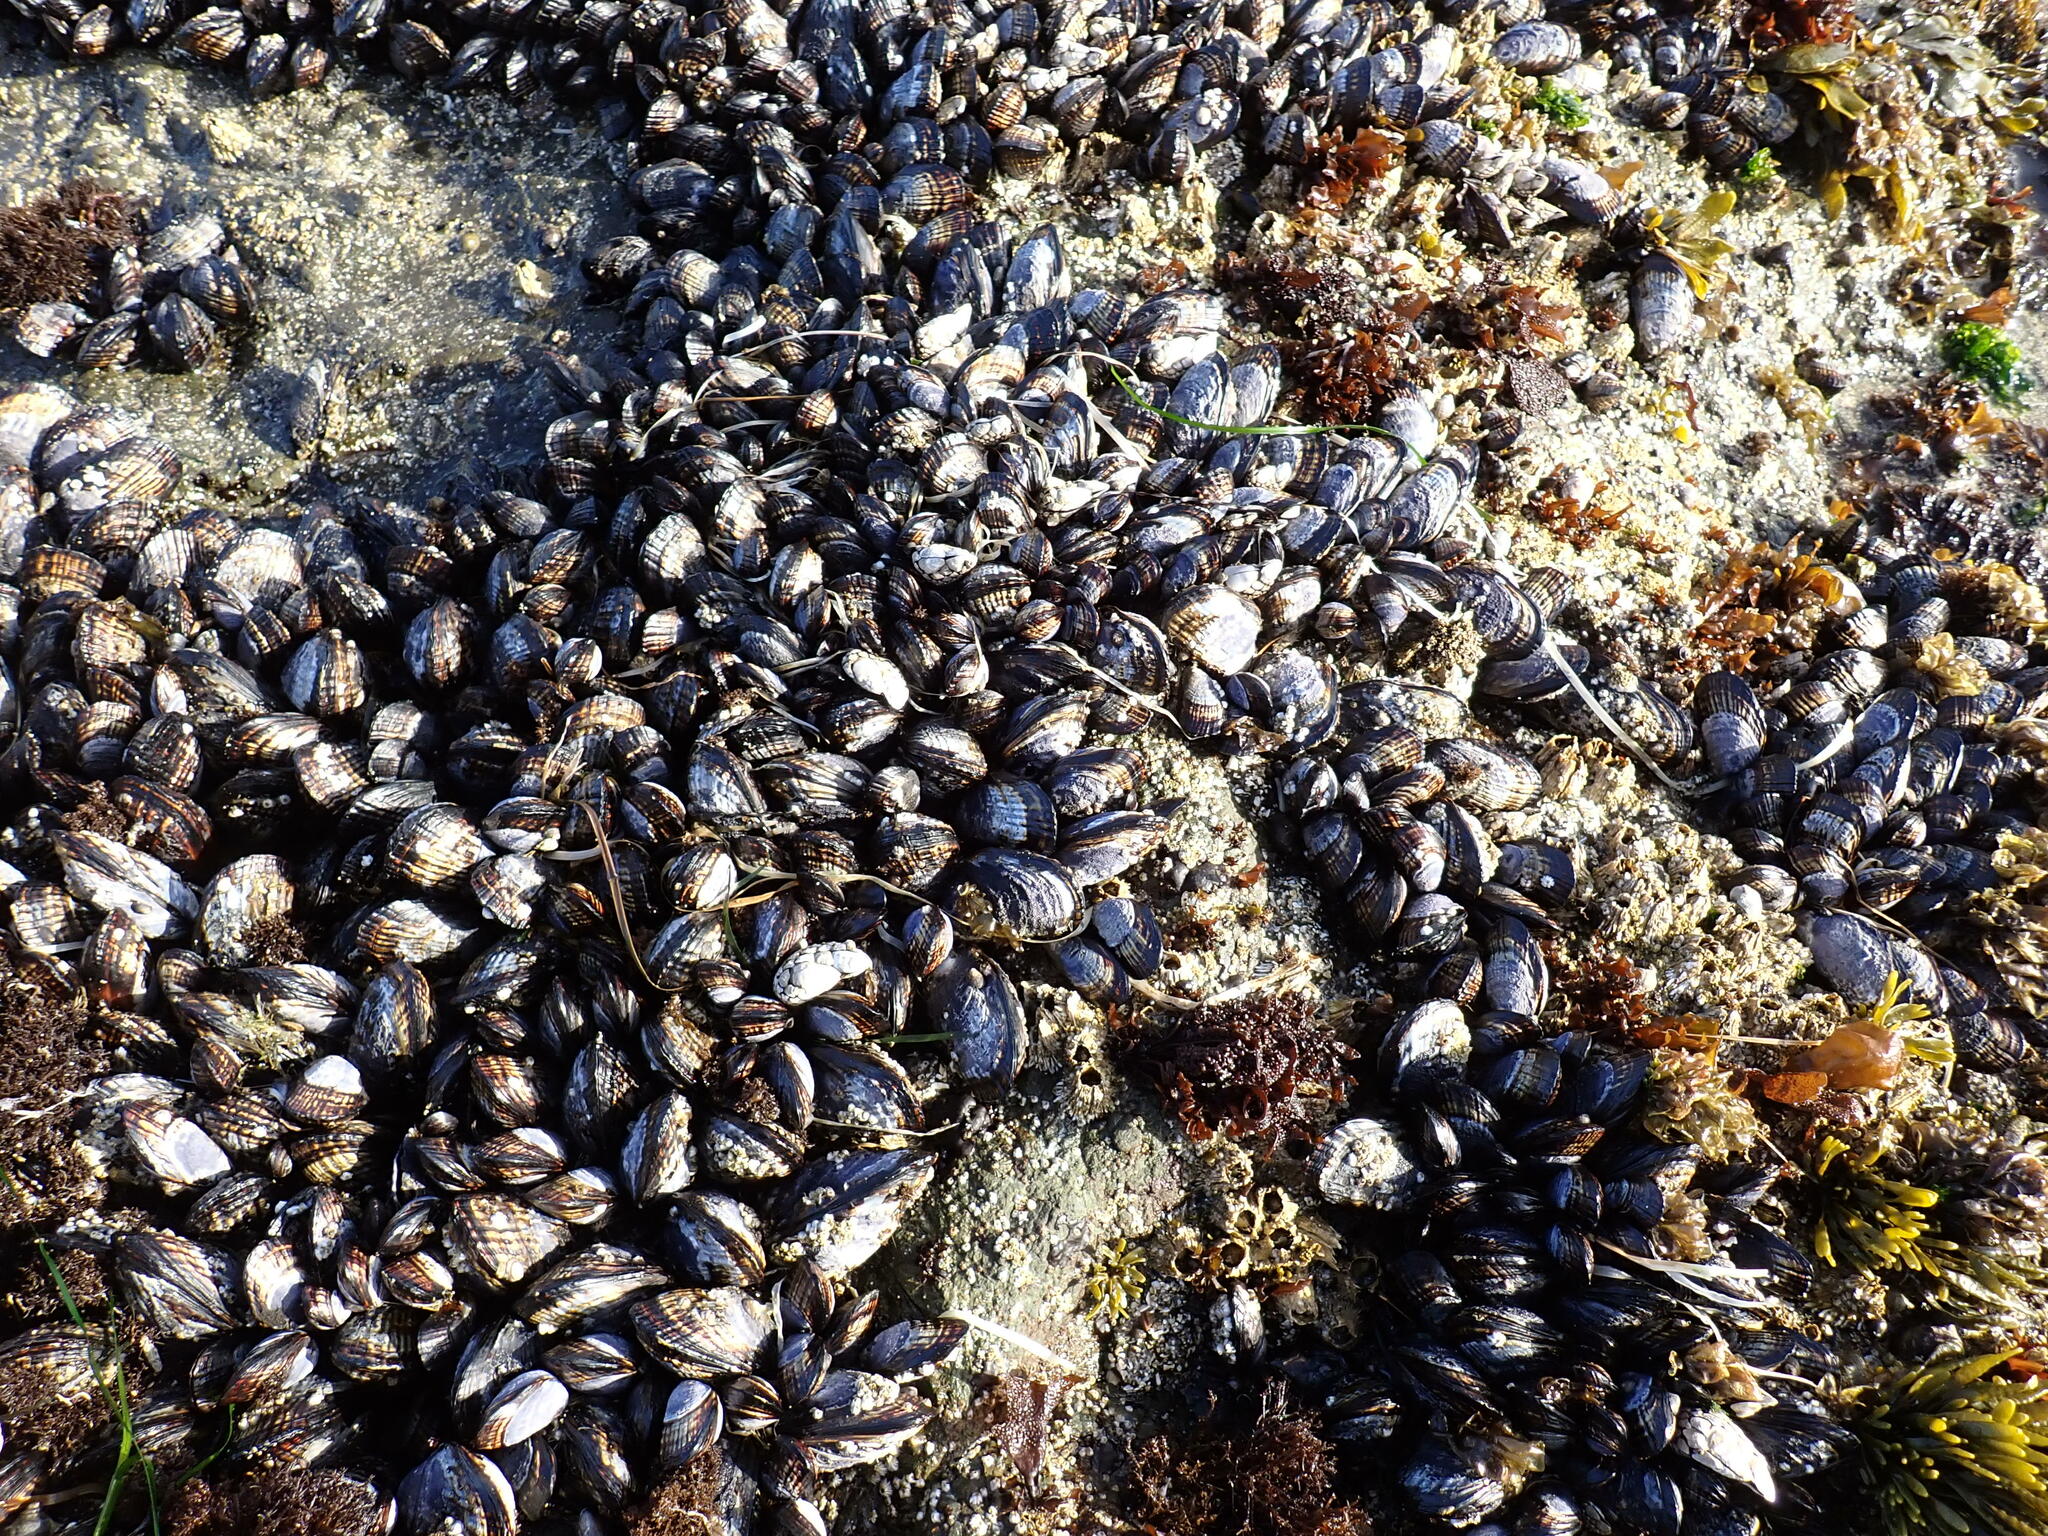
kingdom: Animalia
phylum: Mollusca
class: Bivalvia
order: Mytilida
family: Mytilidae
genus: Mytilus
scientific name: Mytilus californianus
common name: California mussel
